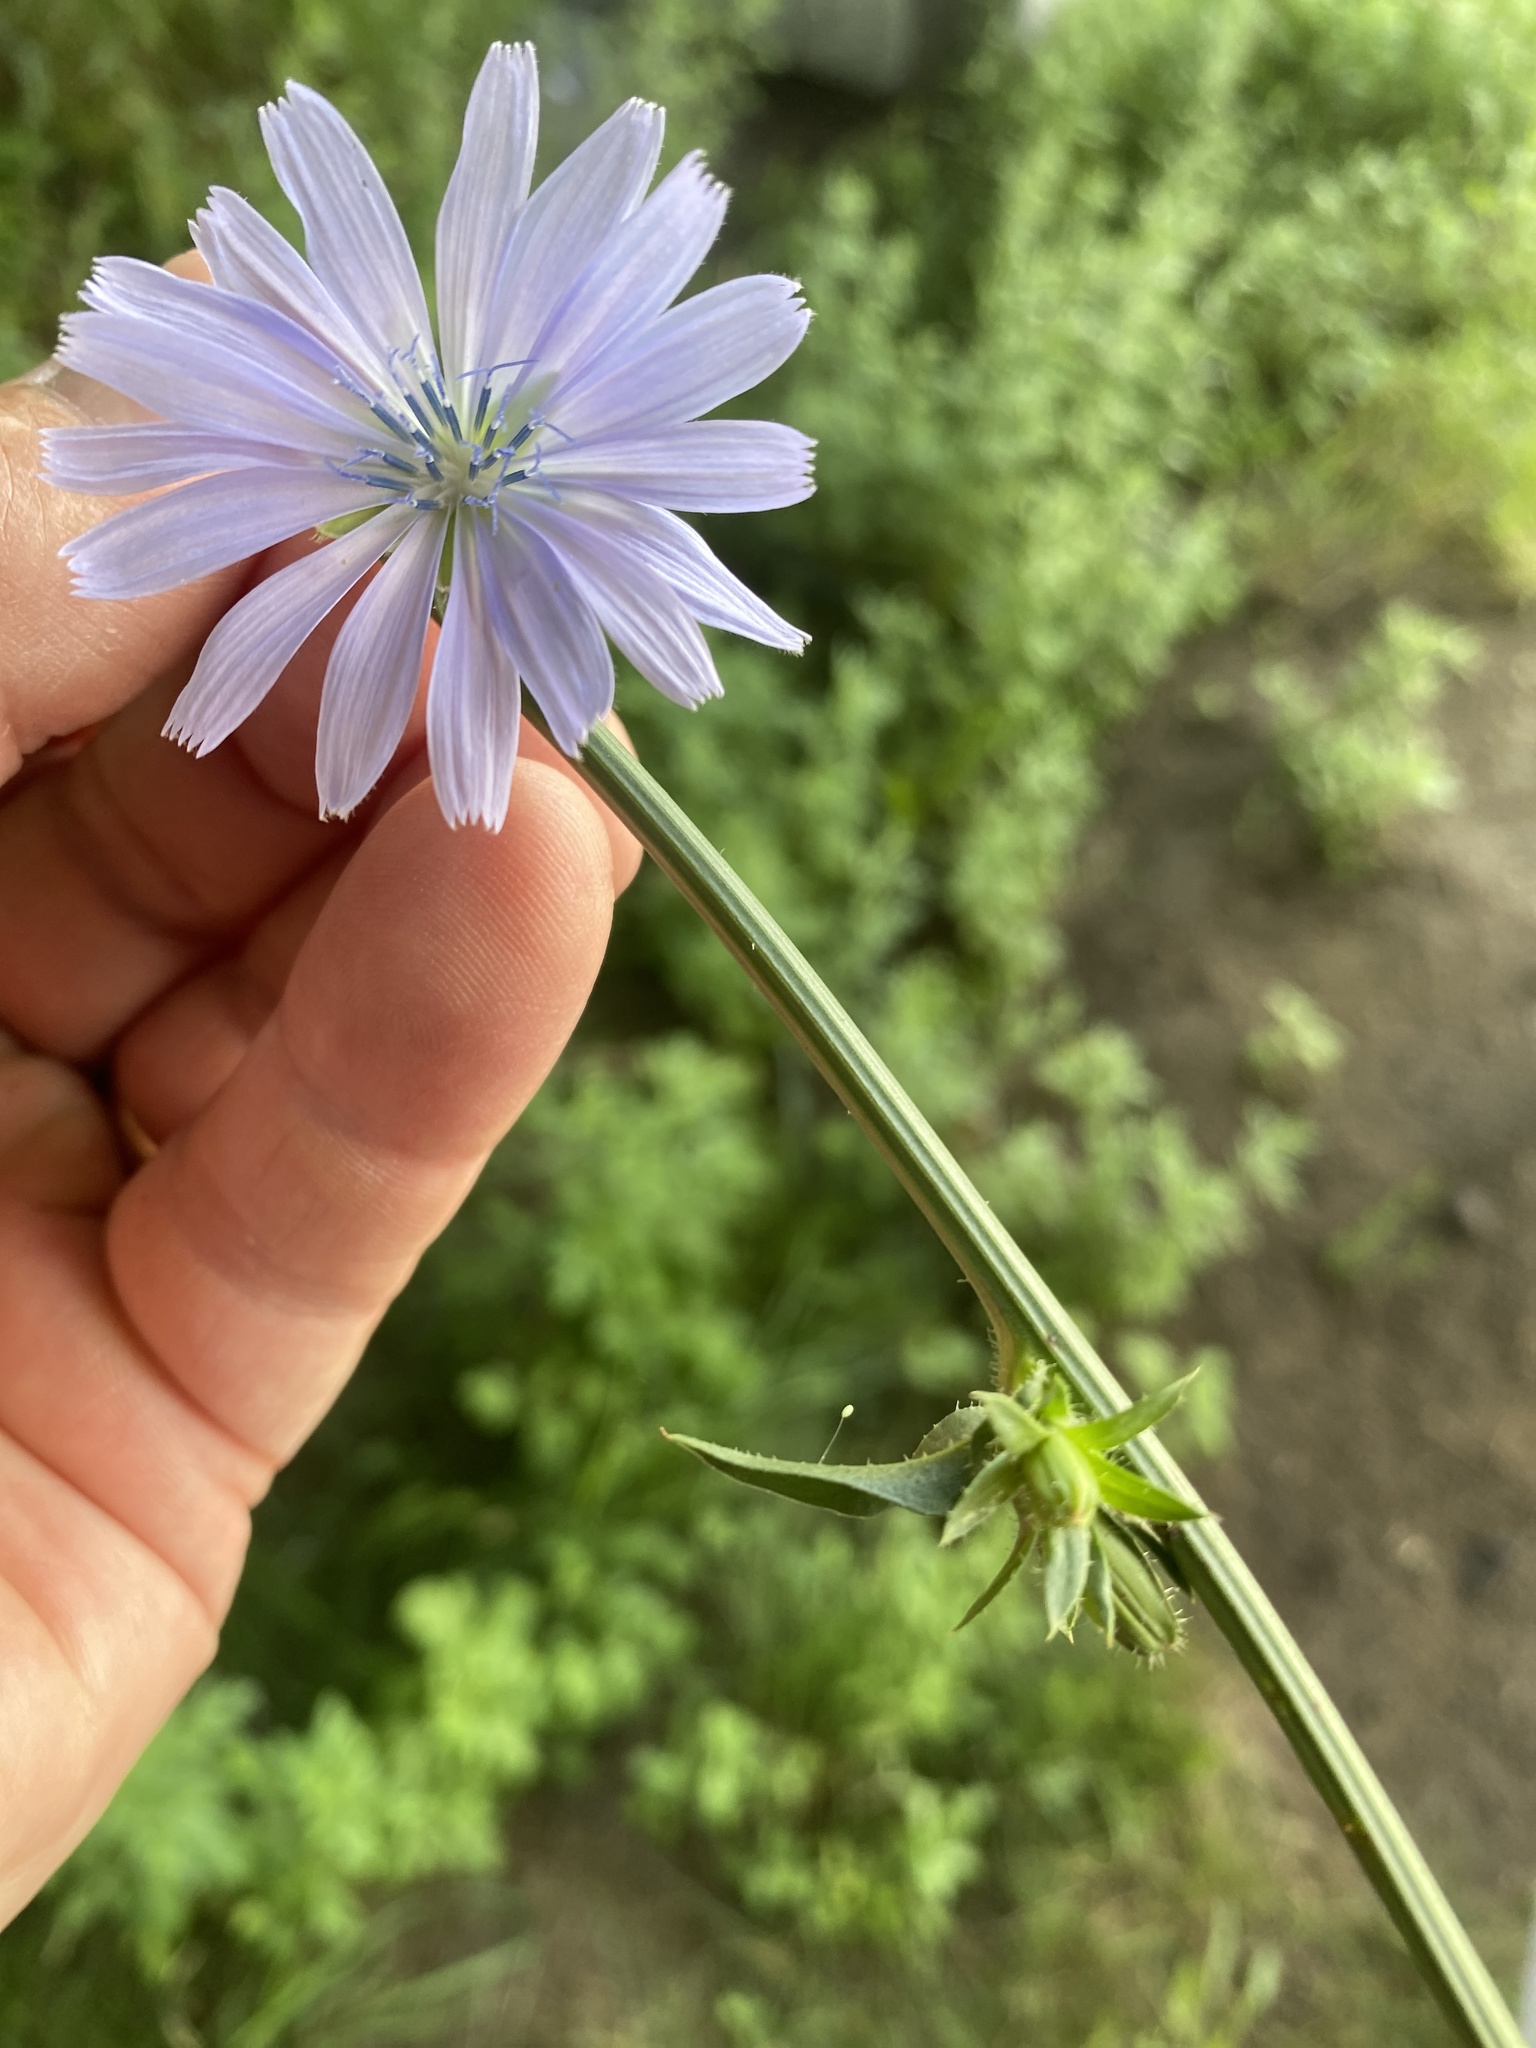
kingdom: Plantae
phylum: Tracheophyta
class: Magnoliopsida
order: Asterales
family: Asteraceae
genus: Cichorium
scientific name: Cichorium intybus
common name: Chicory
